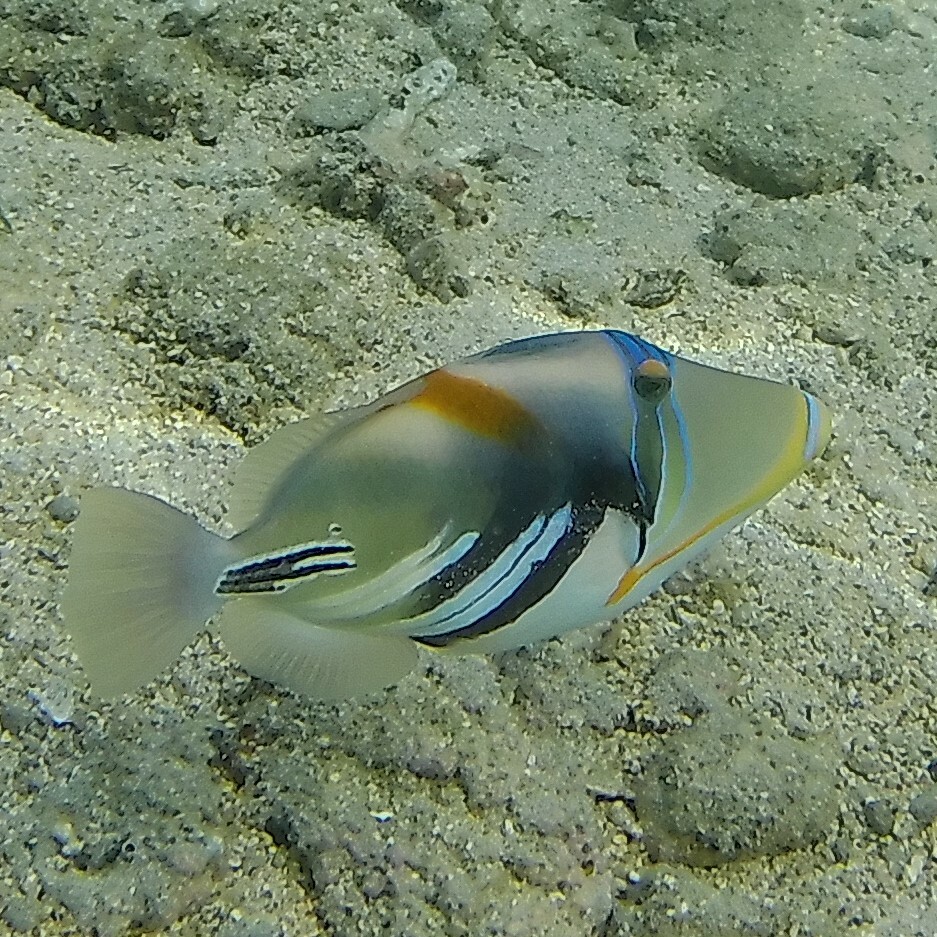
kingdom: Animalia
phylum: Chordata
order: Tetraodontiformes
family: Balistidae
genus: Rhinecanthus
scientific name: Rhinecanthus aculeatus
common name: White-banded triggerfish
